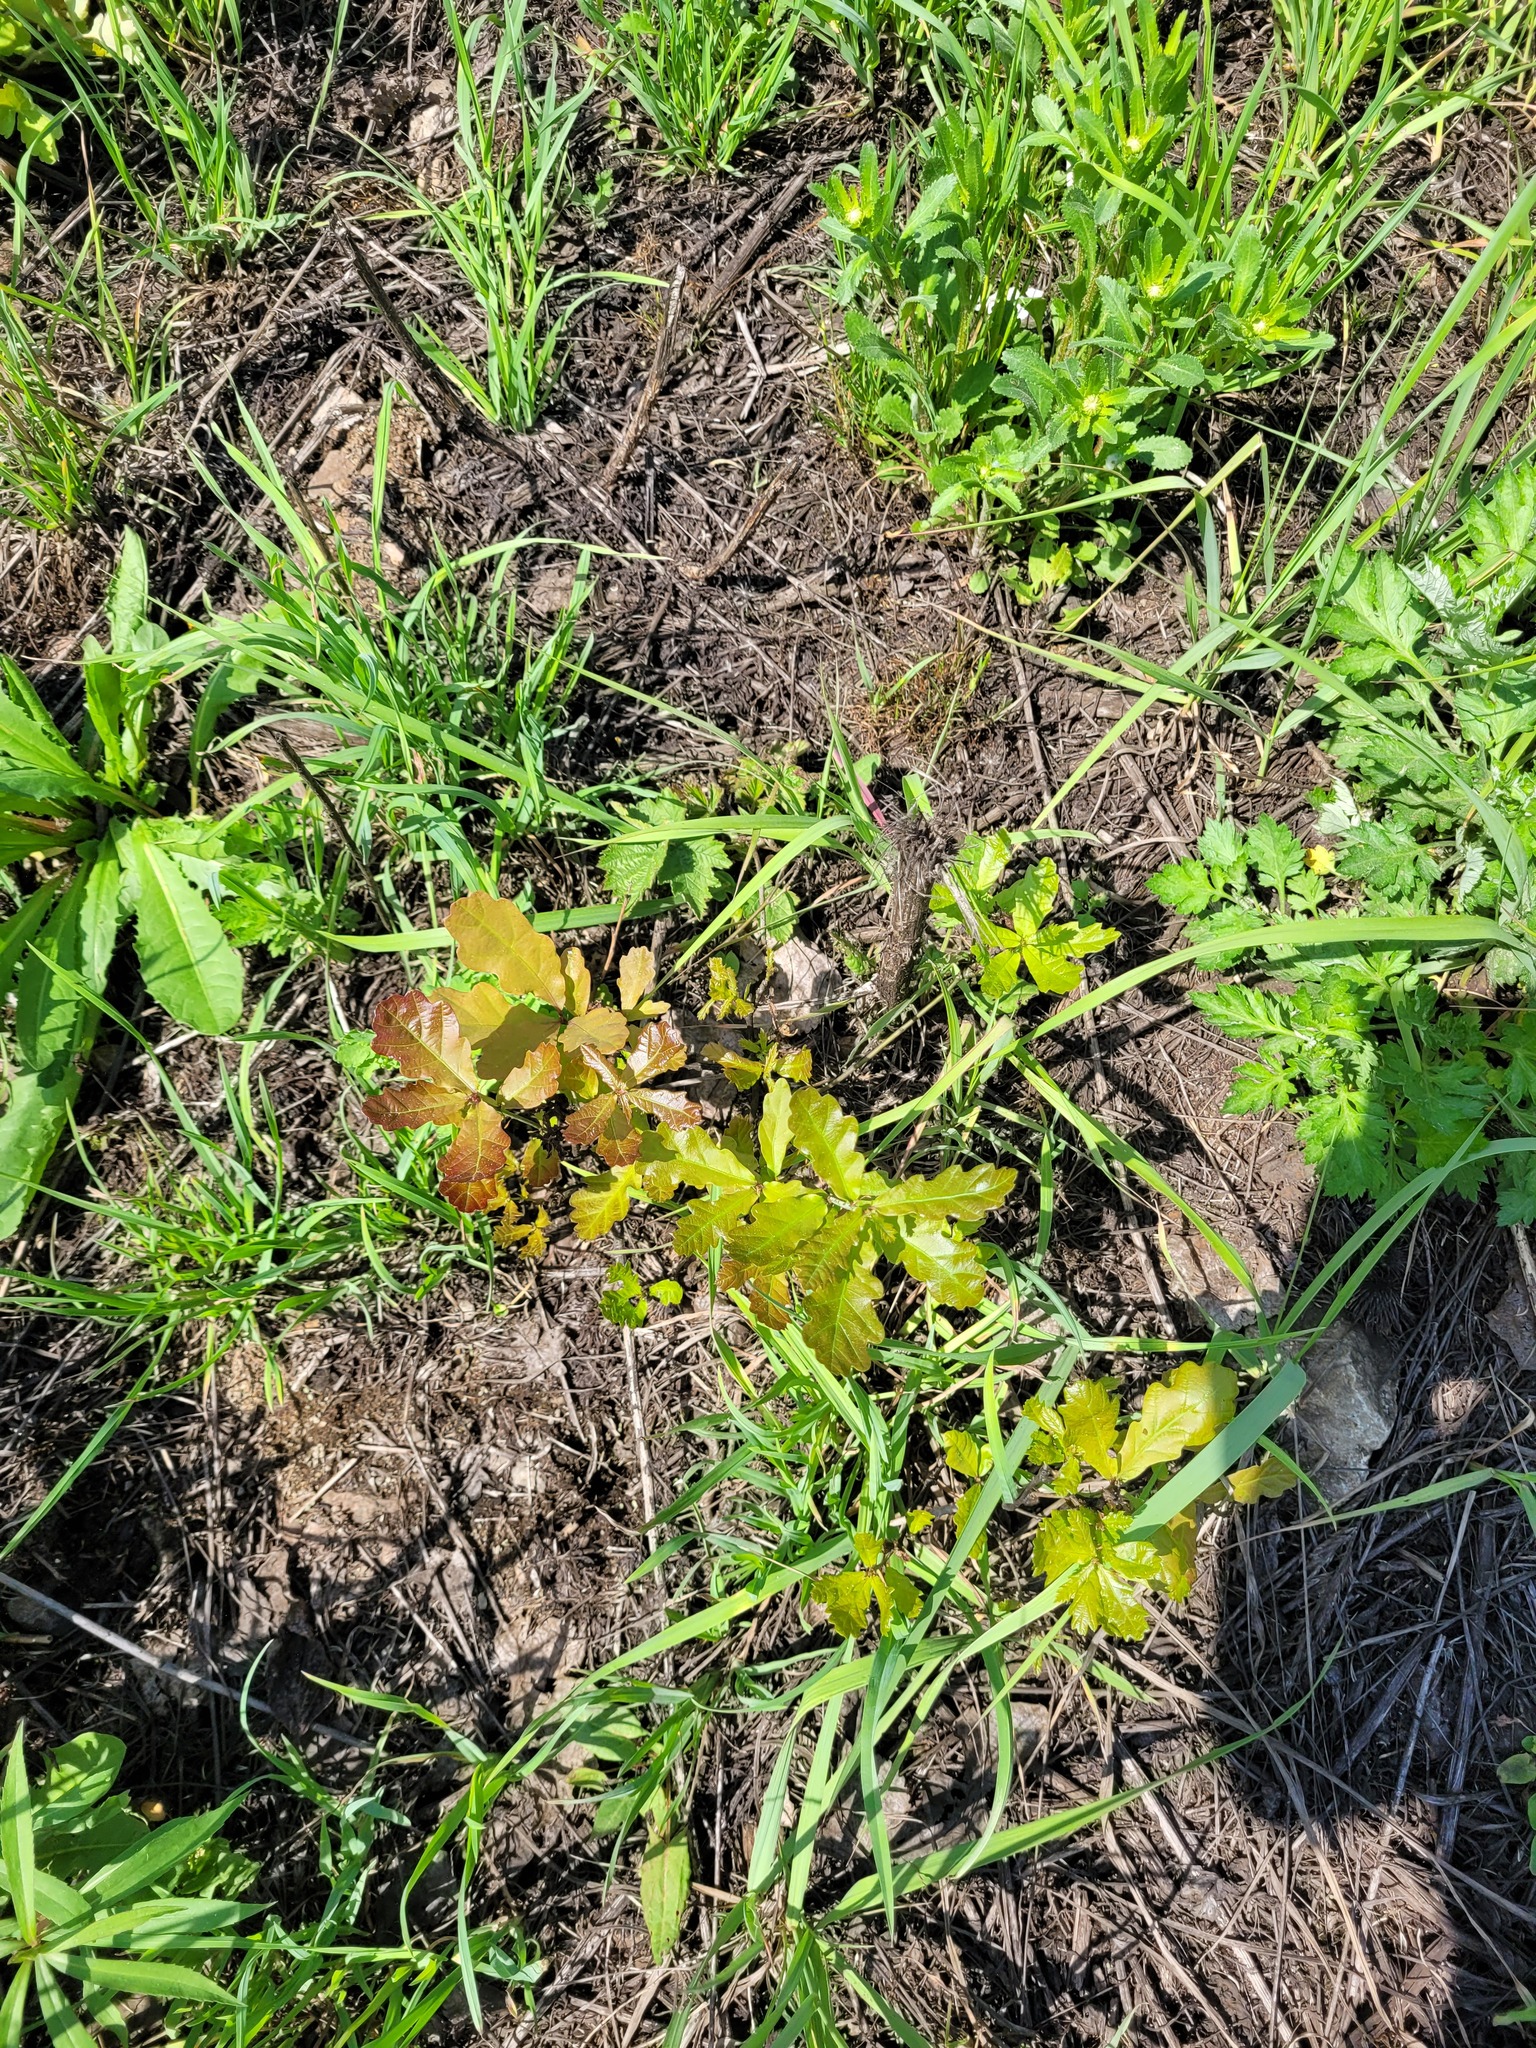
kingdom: Plantae
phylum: Tracheophyta
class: Magnoliopsida
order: Fagales
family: Fagaceae
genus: Quercus
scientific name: Quercus robur
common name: Pedunculate oak
